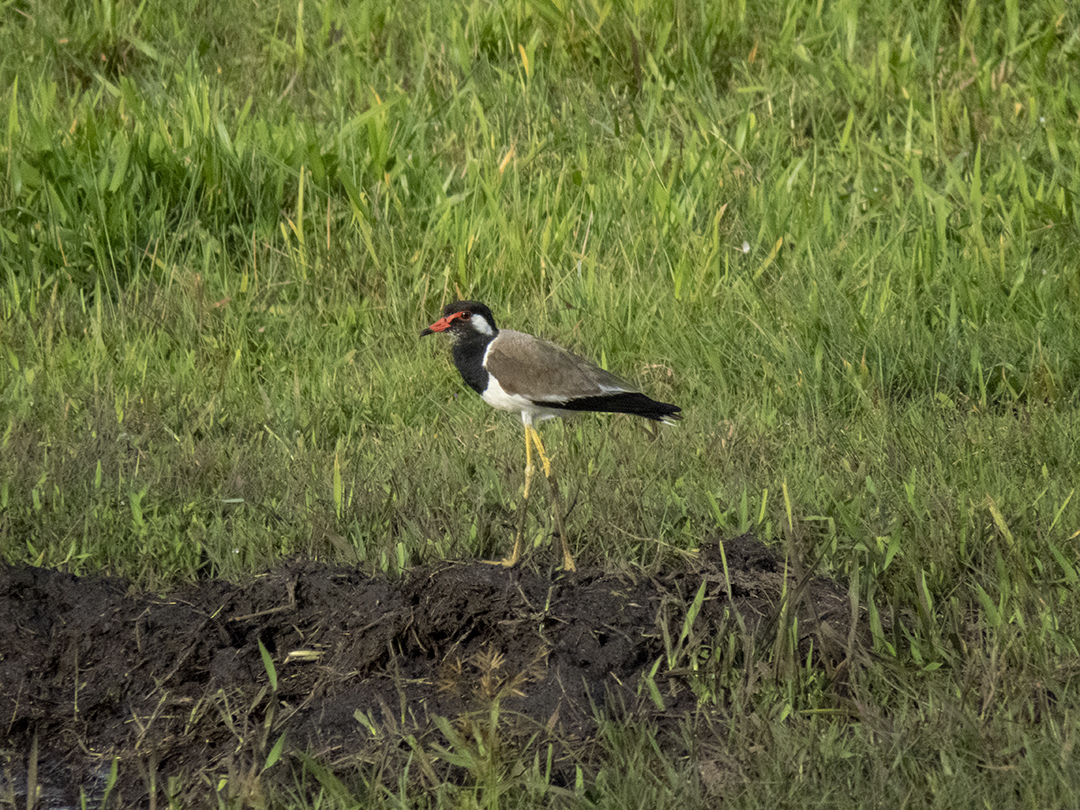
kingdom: Animalia
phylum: Chordata
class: Aves
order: Charadriiformes
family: Charadriidae
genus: Vanellus
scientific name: Vanellus indicus
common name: Red-wattled lapwing
